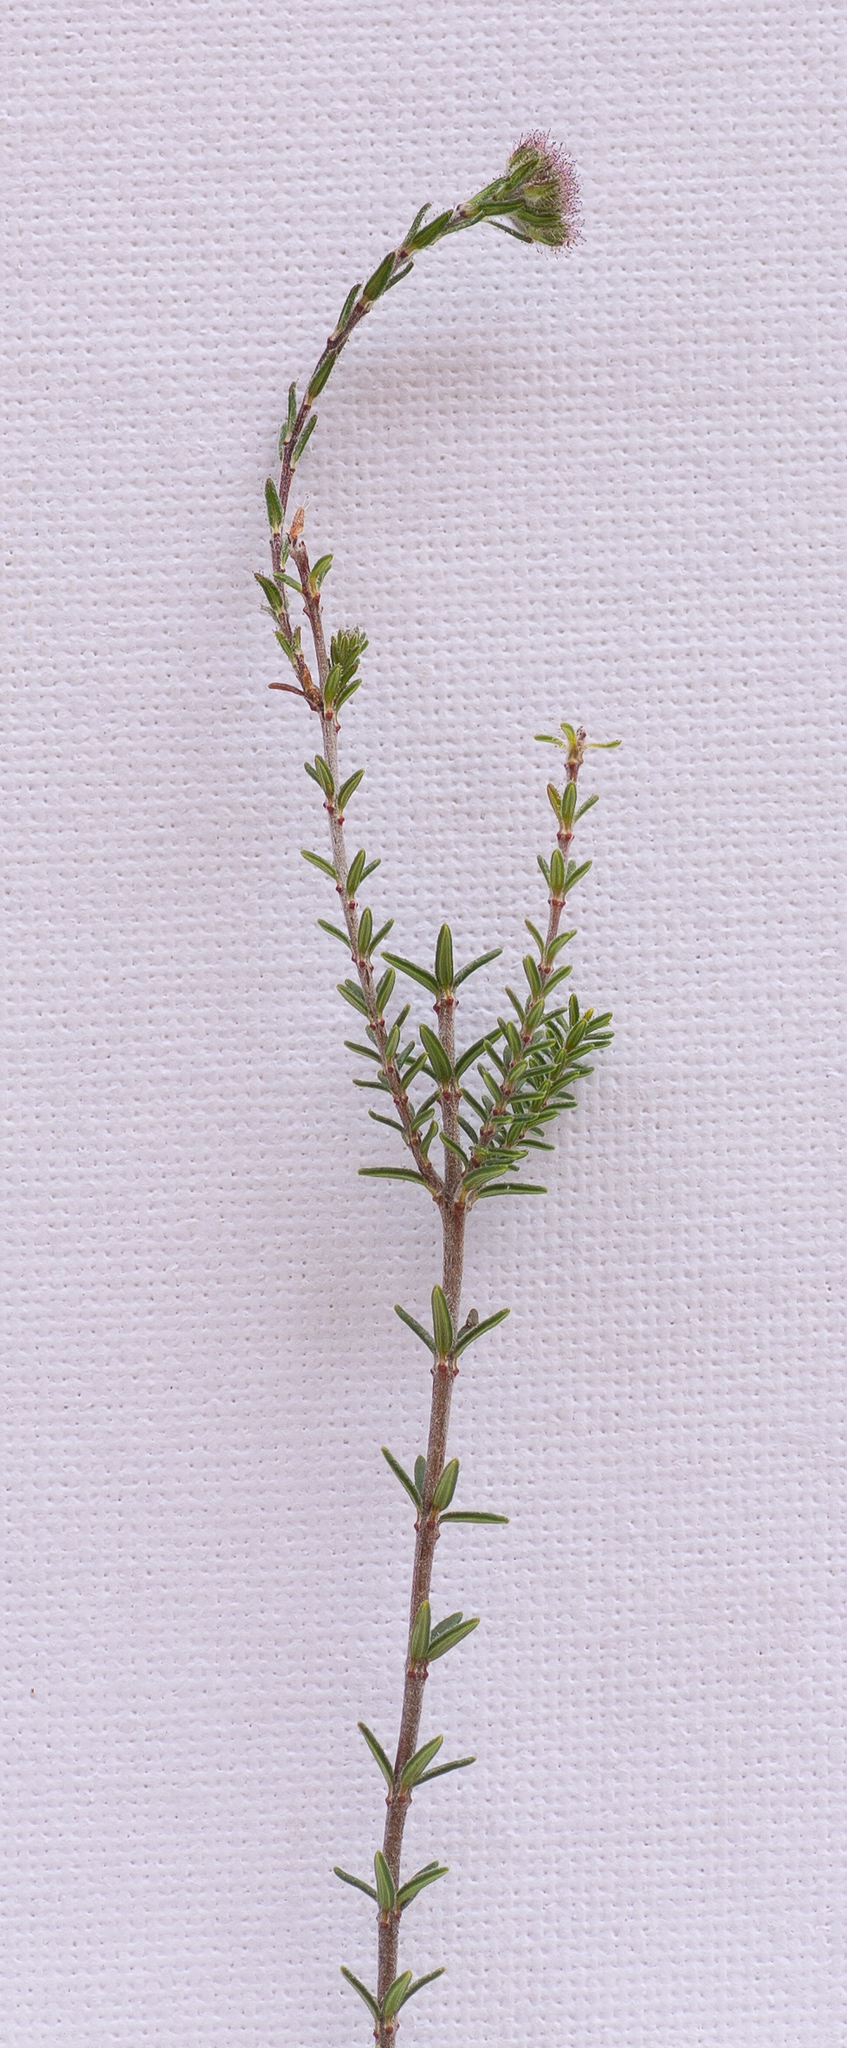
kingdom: Plantae
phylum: Tracheophyta
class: Magnoliopsida
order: Ericales
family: Ericaceae
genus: Erica
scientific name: Erica tetralix
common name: Cross-leaved heath
